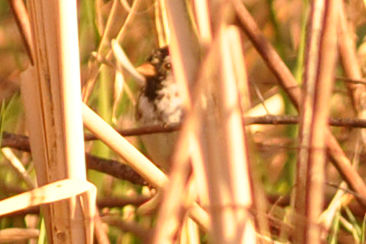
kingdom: Animalia
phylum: Chordata
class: Aves
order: Passeriformes
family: Passerellidae
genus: Zonotrichia
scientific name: Zonotrichia querula
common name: Harris's sparrow
